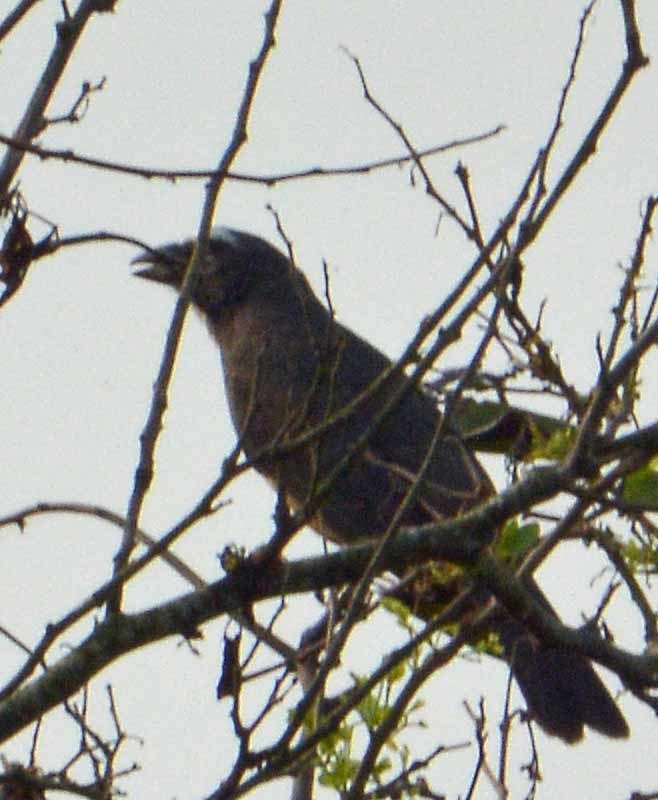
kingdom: Animalia
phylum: Chordata
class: Aves
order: Passeriformes
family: Thraupidae
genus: Saltator
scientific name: Saltator grandis
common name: Cinnamon-bellied saltator
